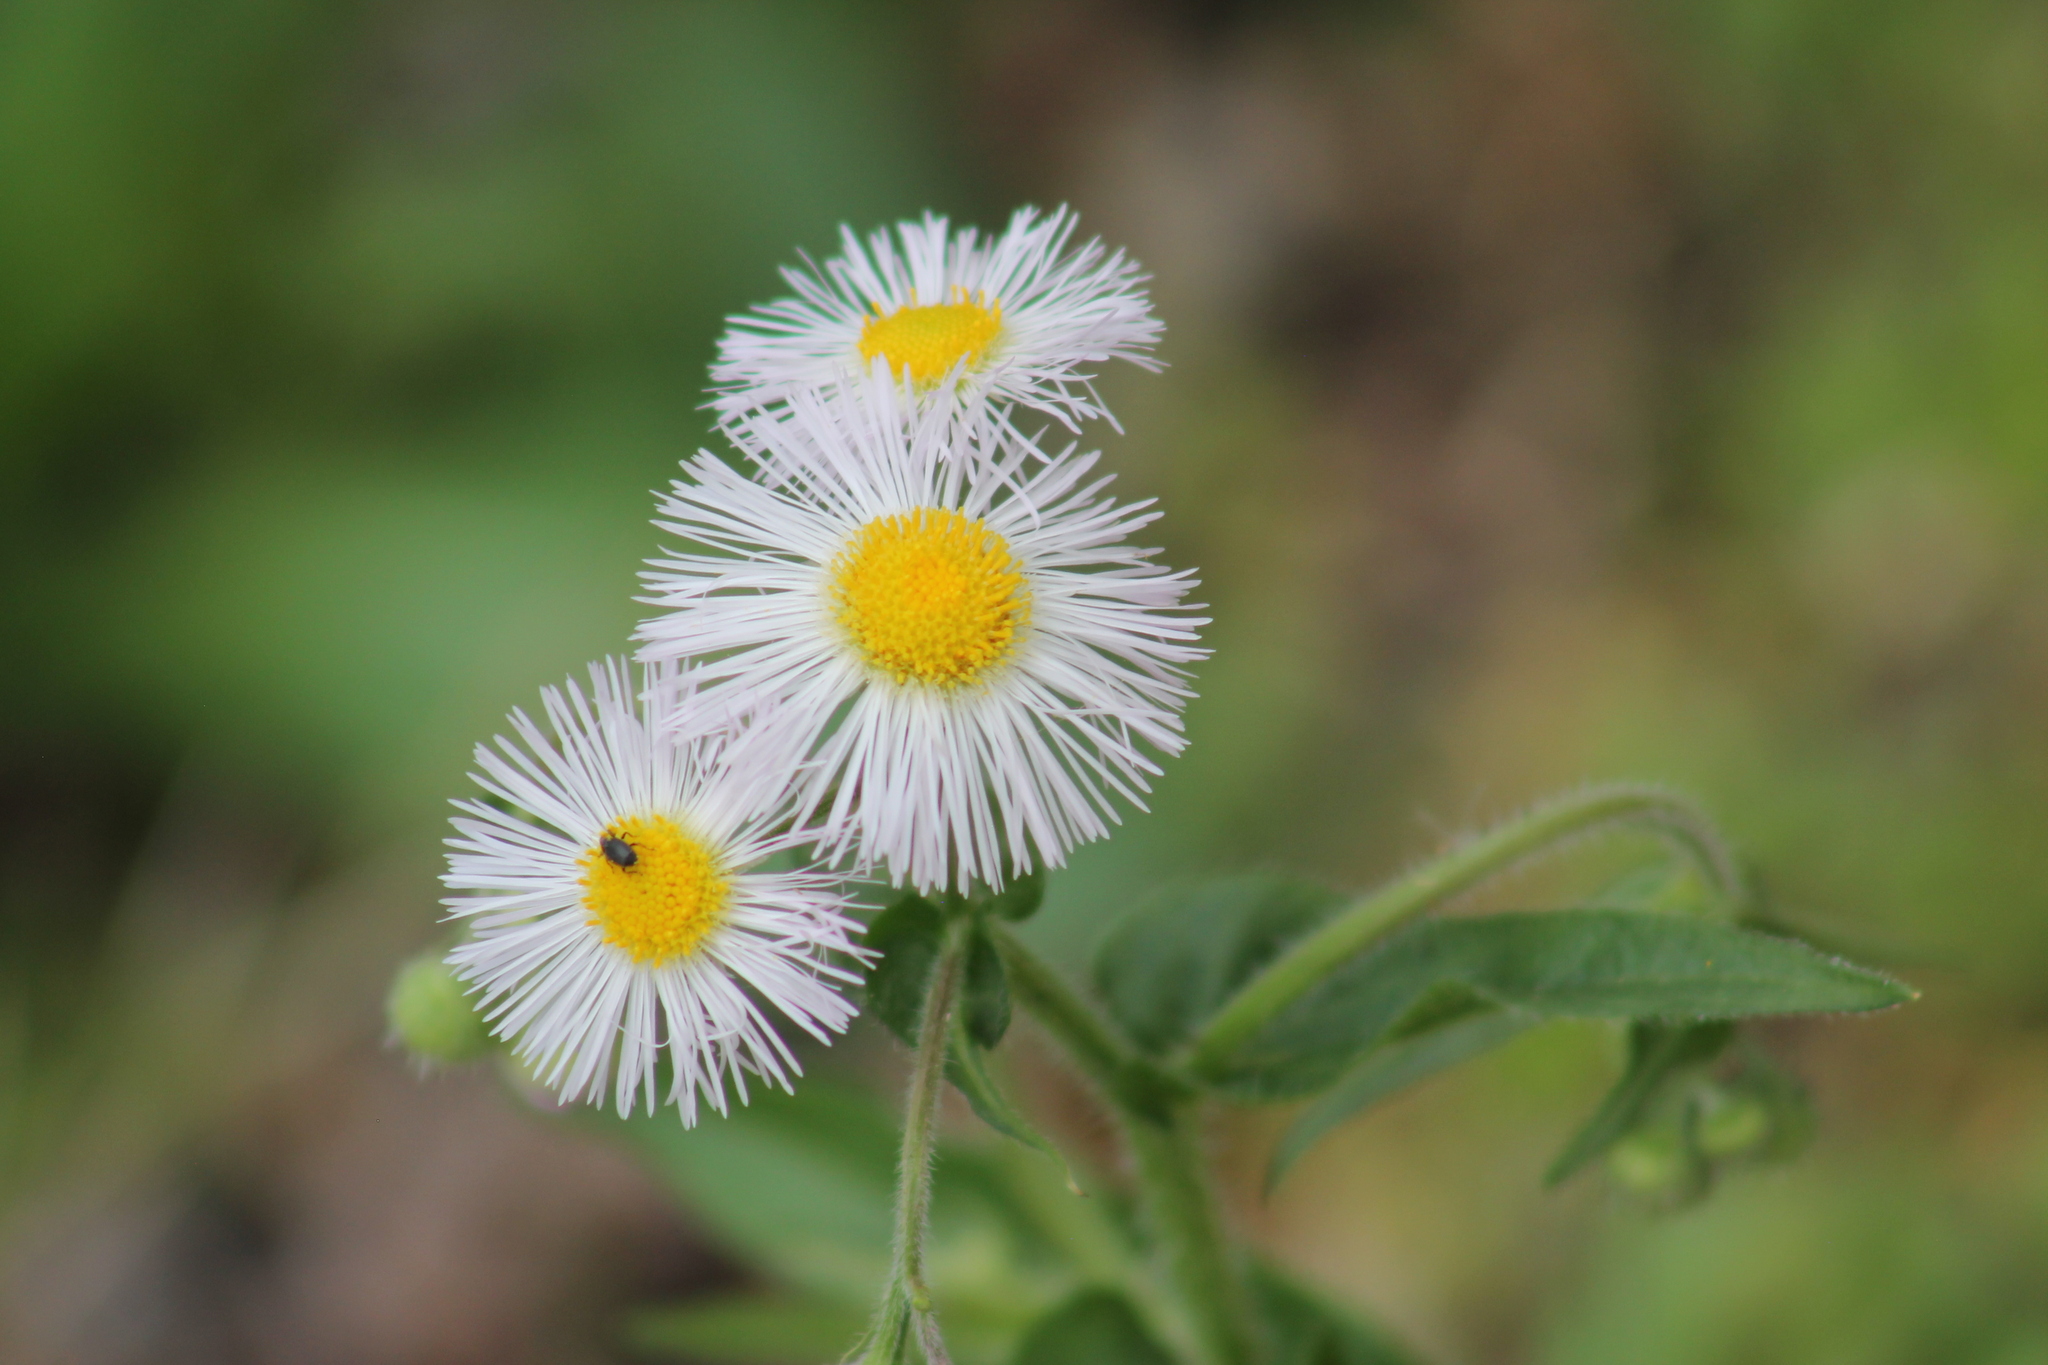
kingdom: Plantae
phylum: Tracheophyta
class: Magnoliopsida
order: Asterales
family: Asteraceae
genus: Erigeron
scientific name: Erigeron philadelphicus
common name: Robin's-plantain
